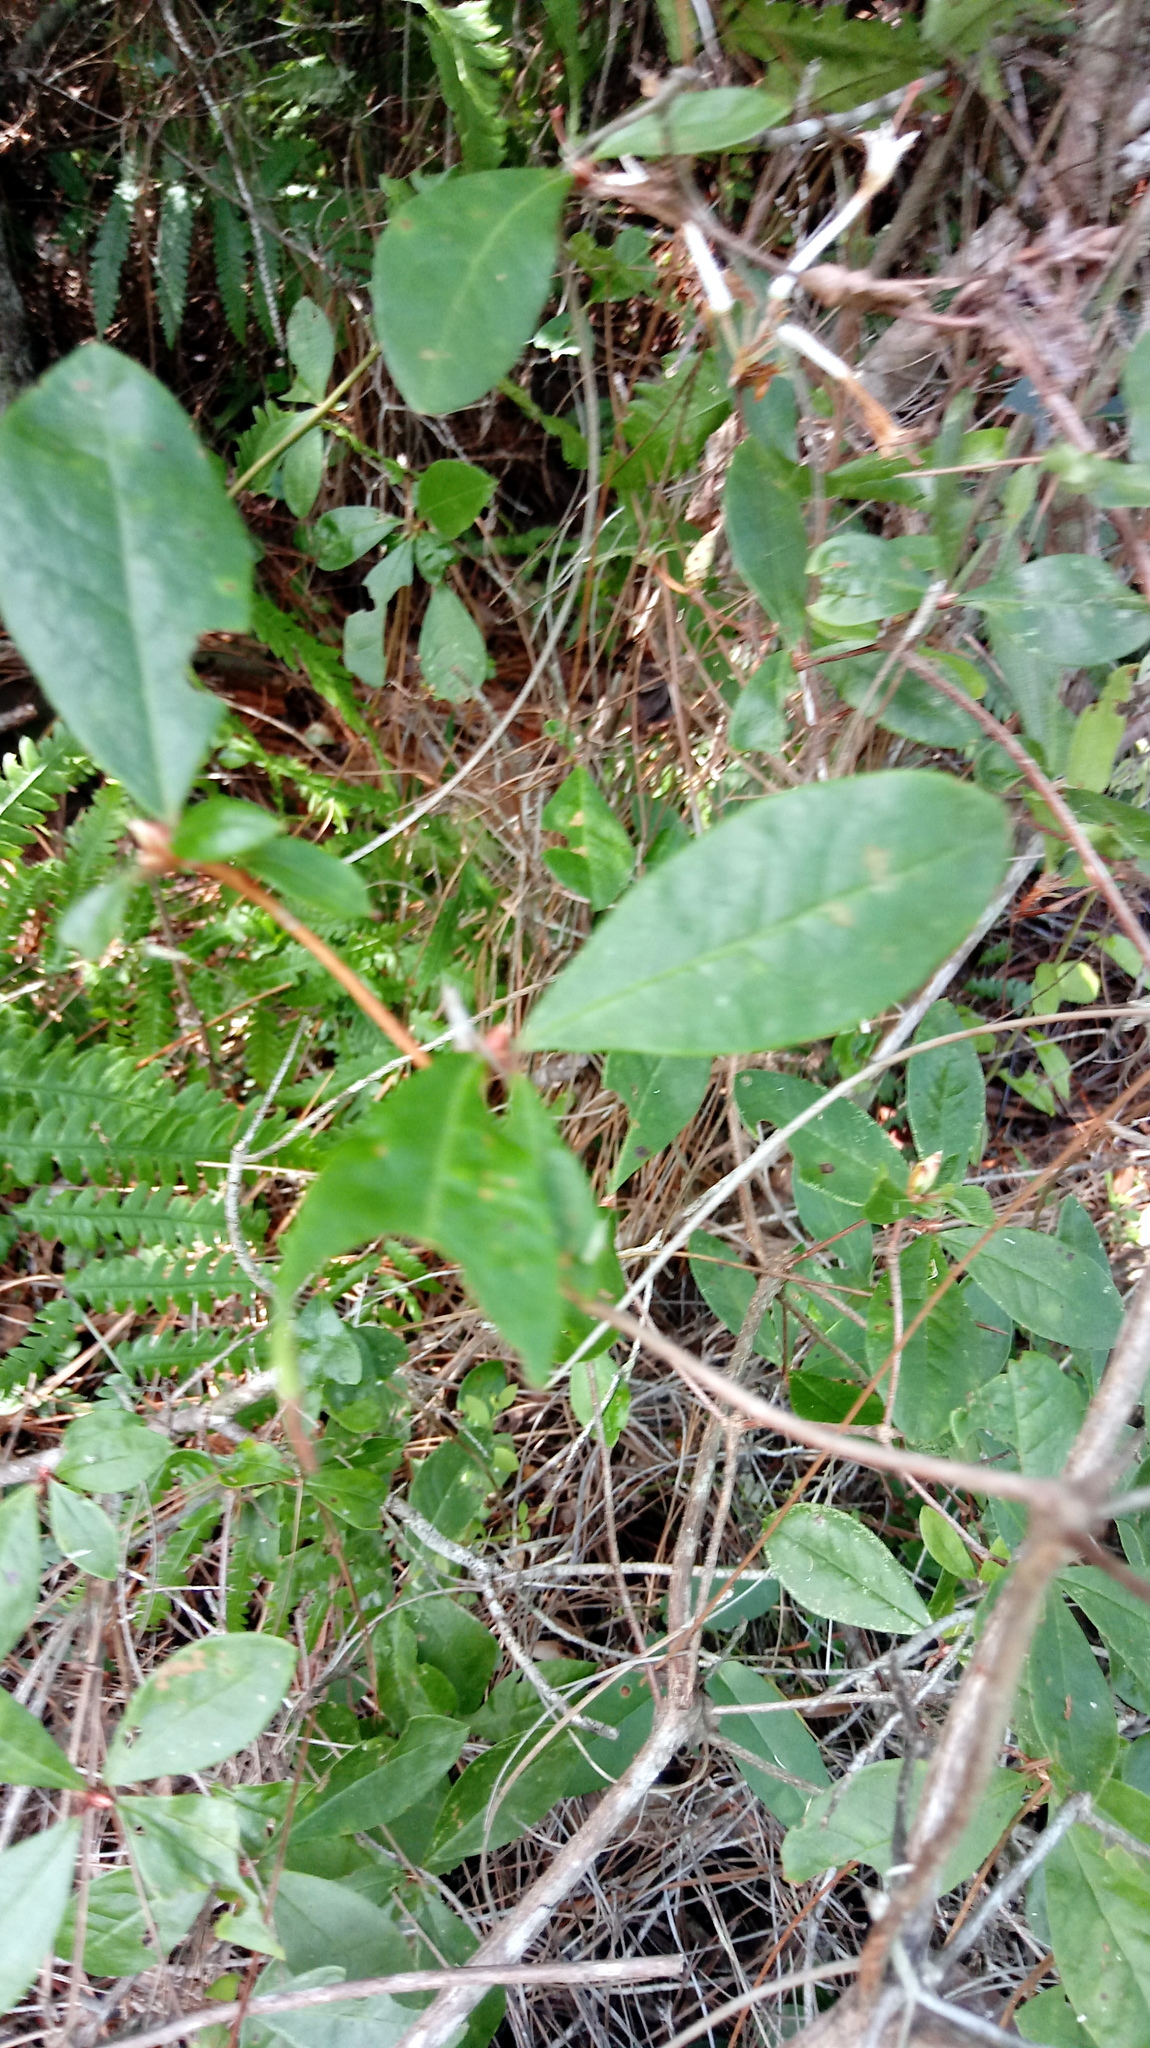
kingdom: Plantae
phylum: Tracheophyta
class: Magnoliopsida
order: Ericales
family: Ericaceae
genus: Rhododendron
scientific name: Rhododendron serrulatum
